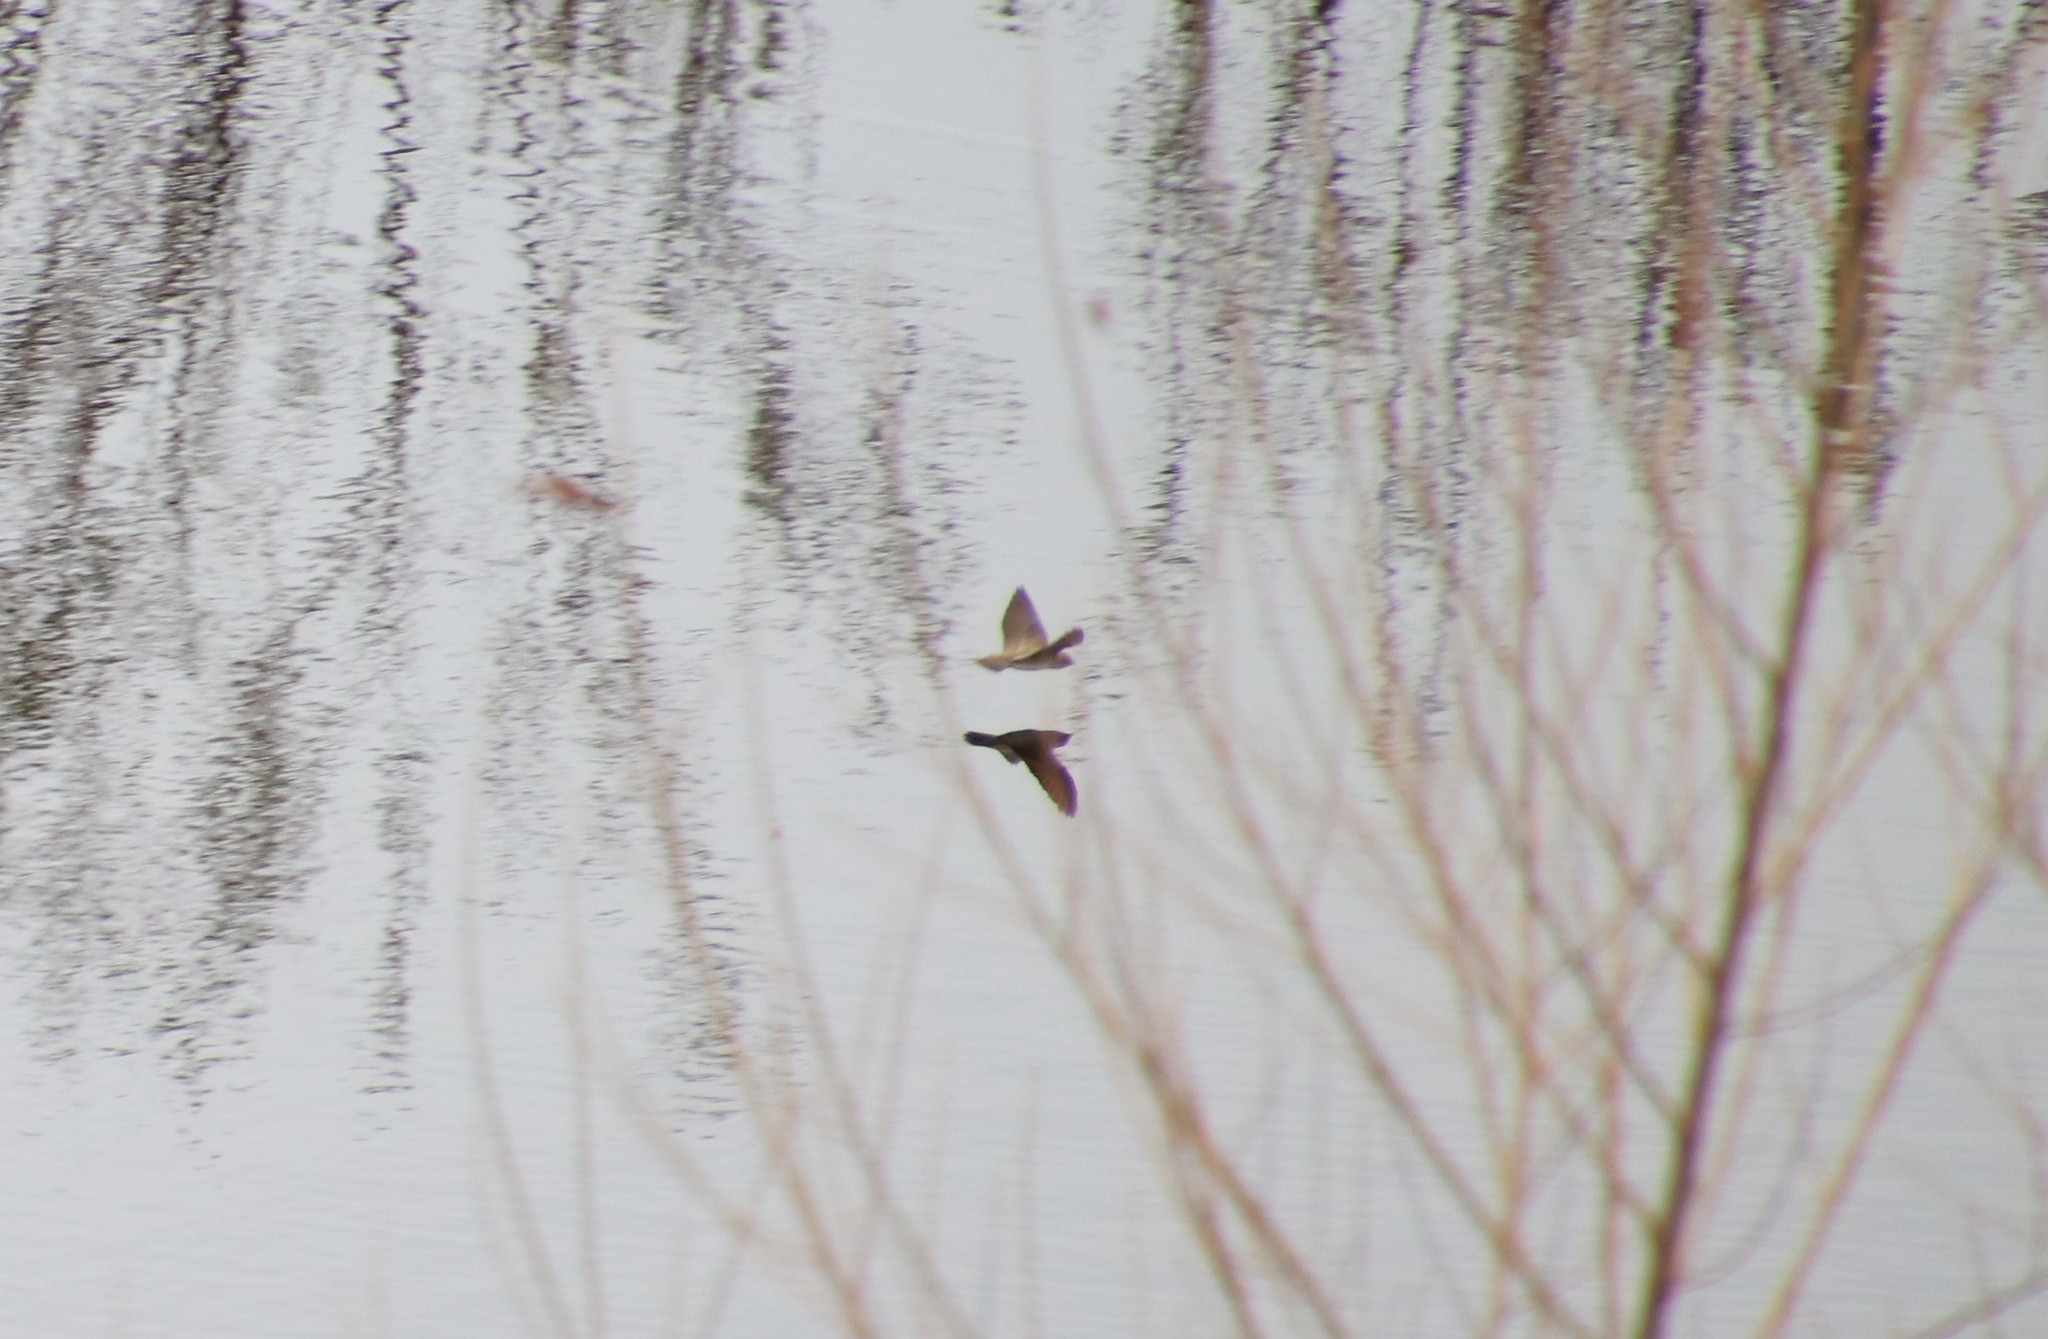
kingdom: Animalia
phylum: Chordata
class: Aves
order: Passeriformes
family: Hirundinidae
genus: Stelgidopteryx
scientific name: Stelgidopteryx serripennis
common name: Northern rough-winged swallow
